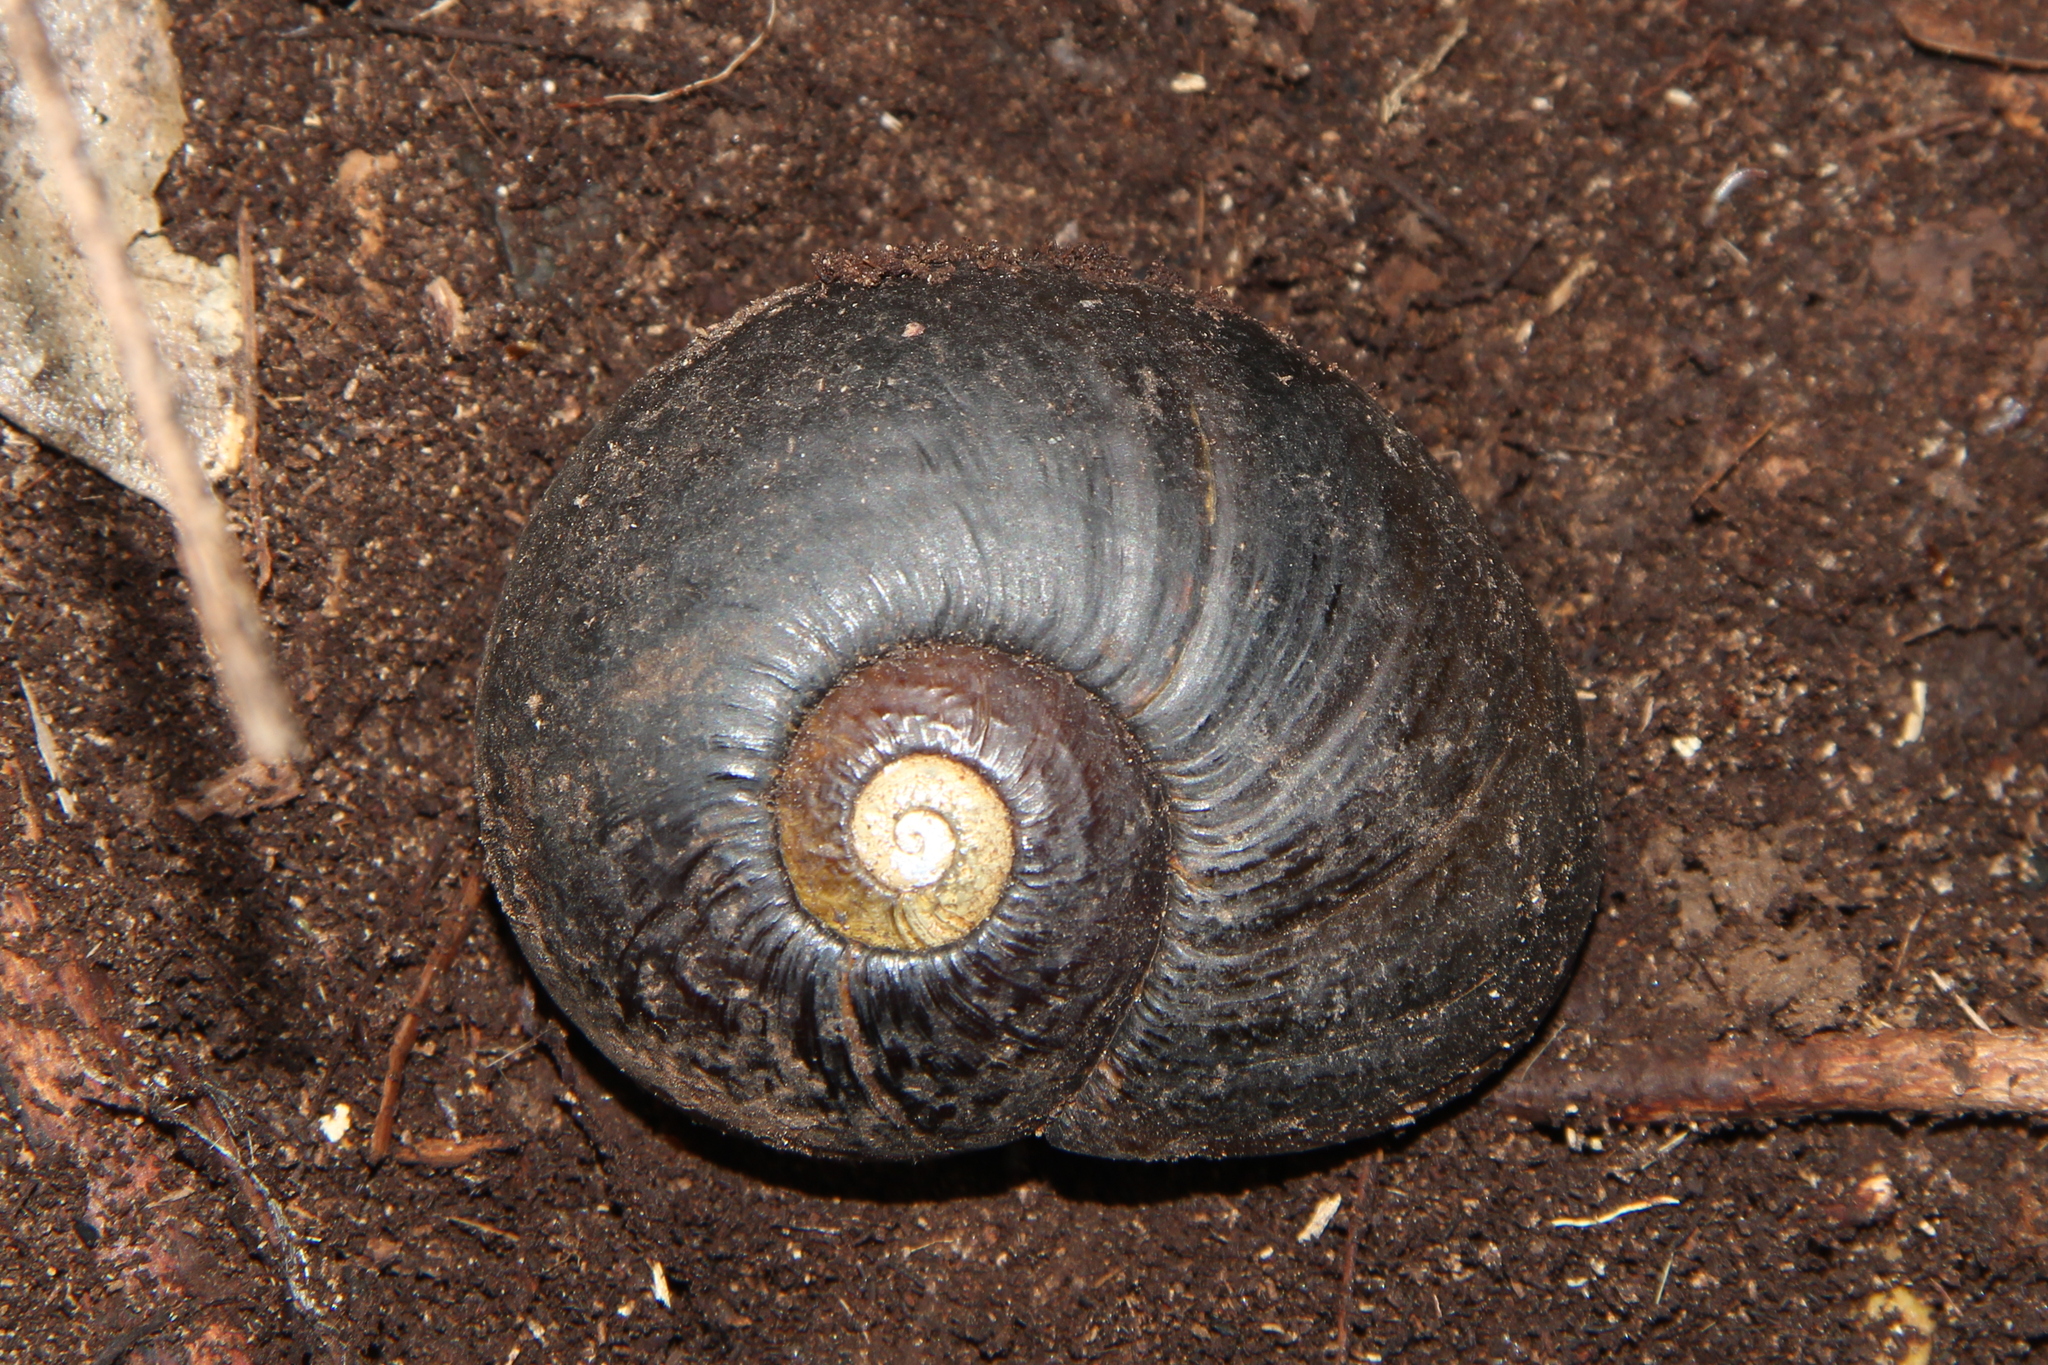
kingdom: Animalia
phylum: Mollusca
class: Gastropoda
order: Stylommatophora
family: Rhytididae
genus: Paryphanta
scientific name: Paryphanta busbyi
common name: Kauri snail
